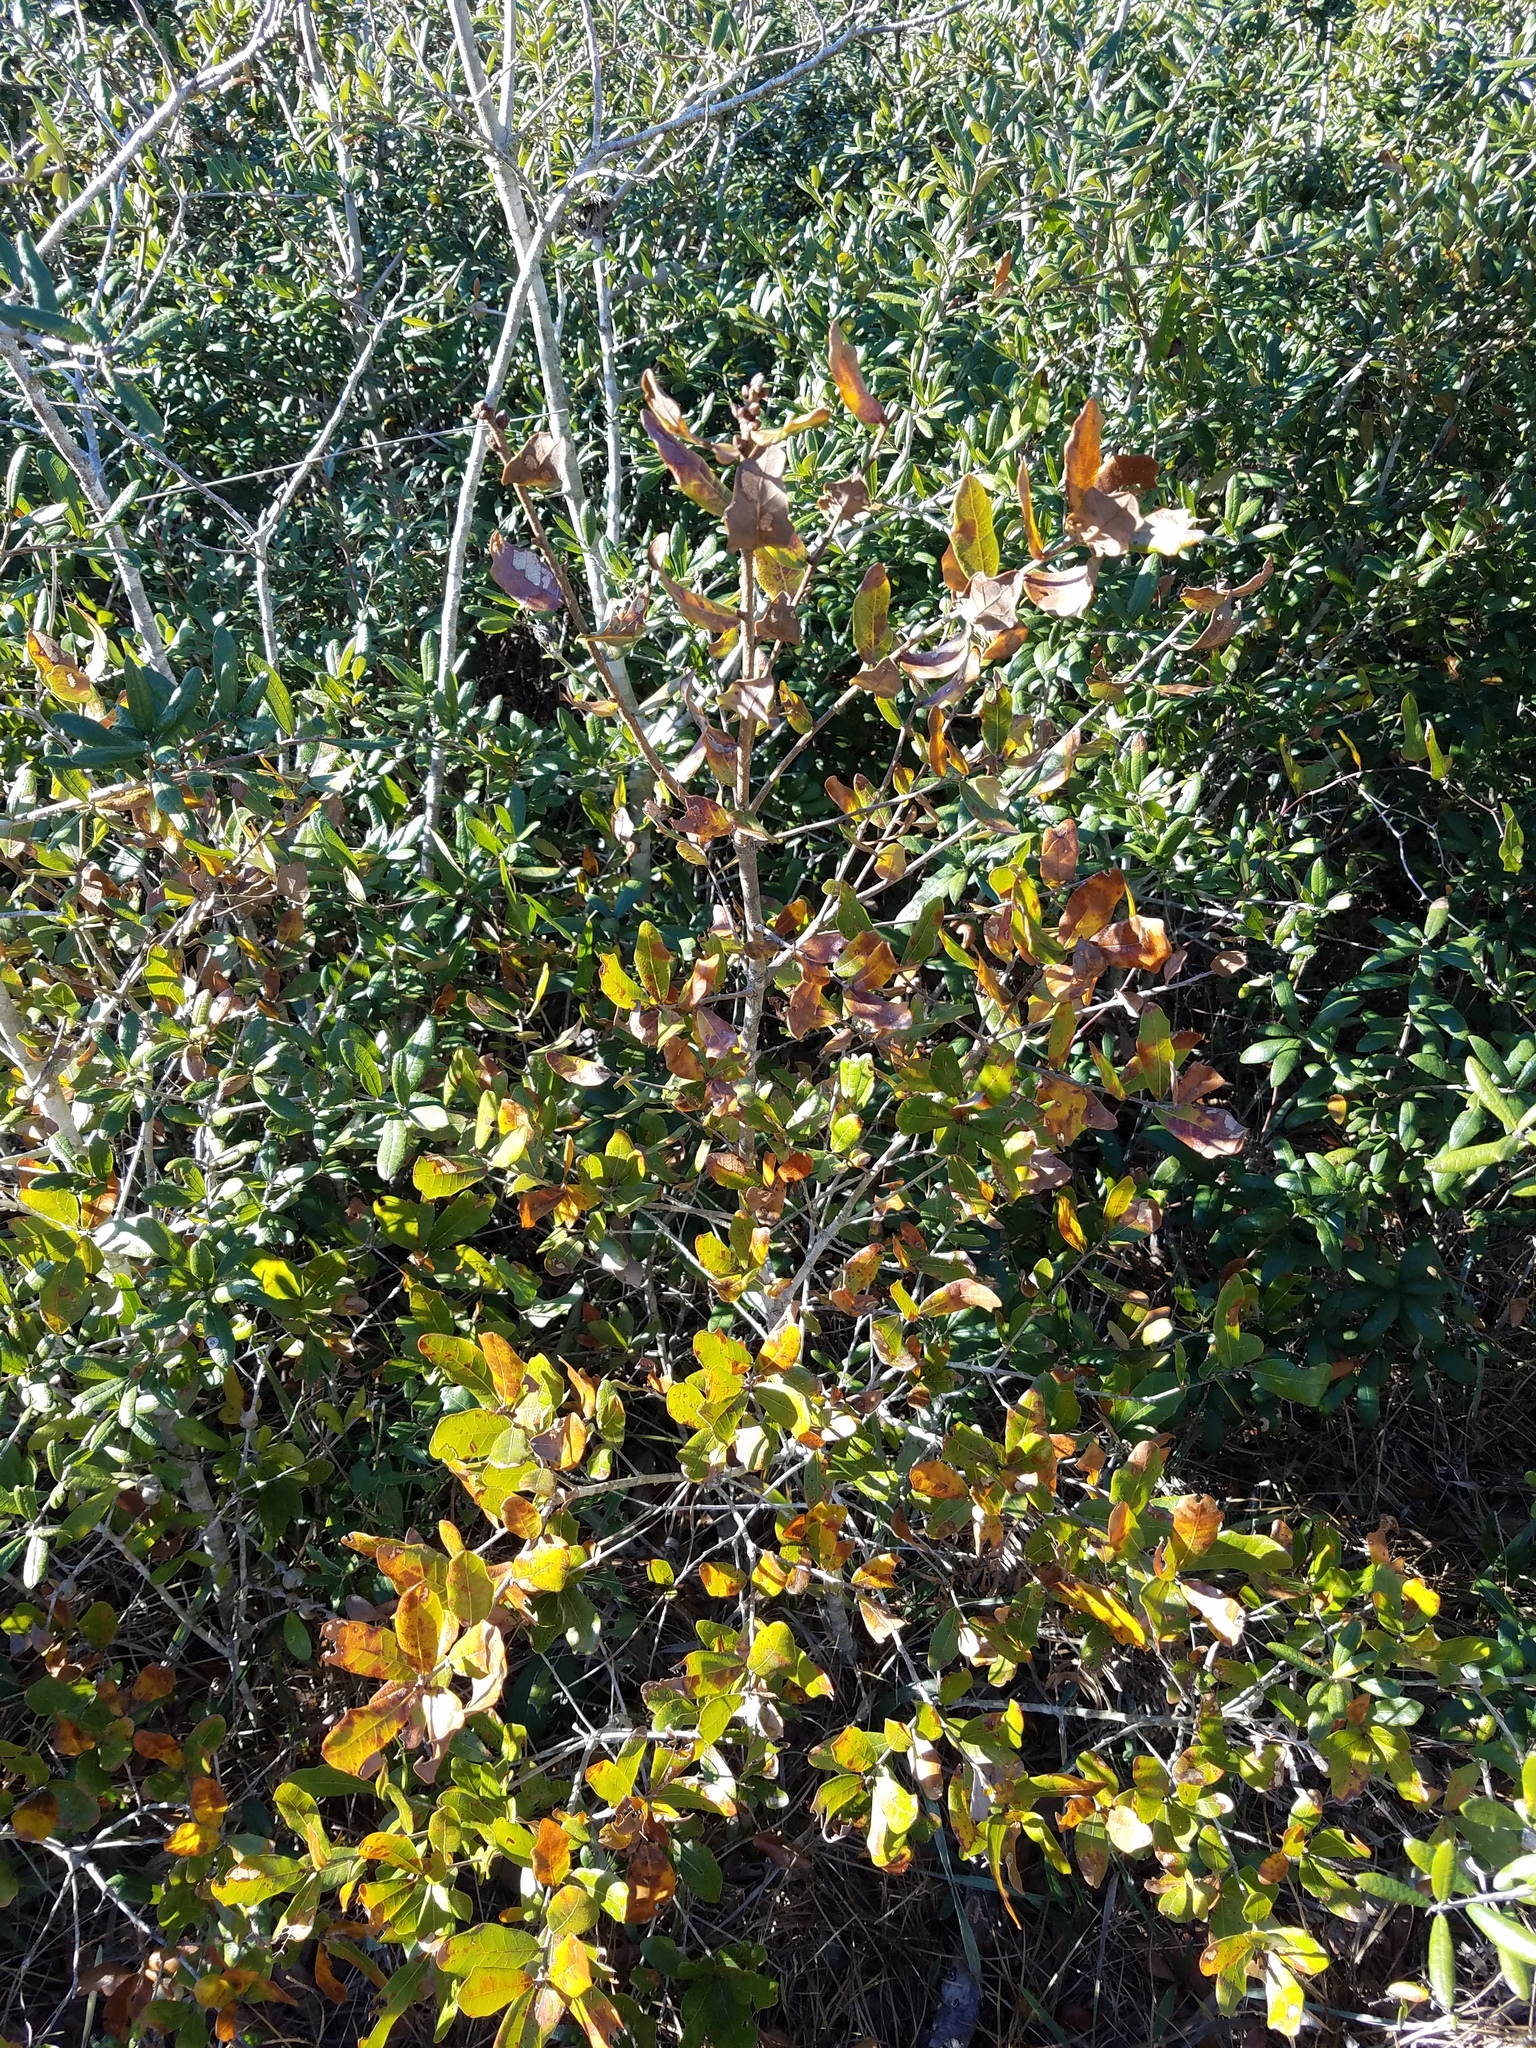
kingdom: Plantae
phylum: Tracheophyta
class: Magnoliopsida
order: Fagales
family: Fagaceae
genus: Quercus
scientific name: Quercus chapmanii
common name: Chapman oak
